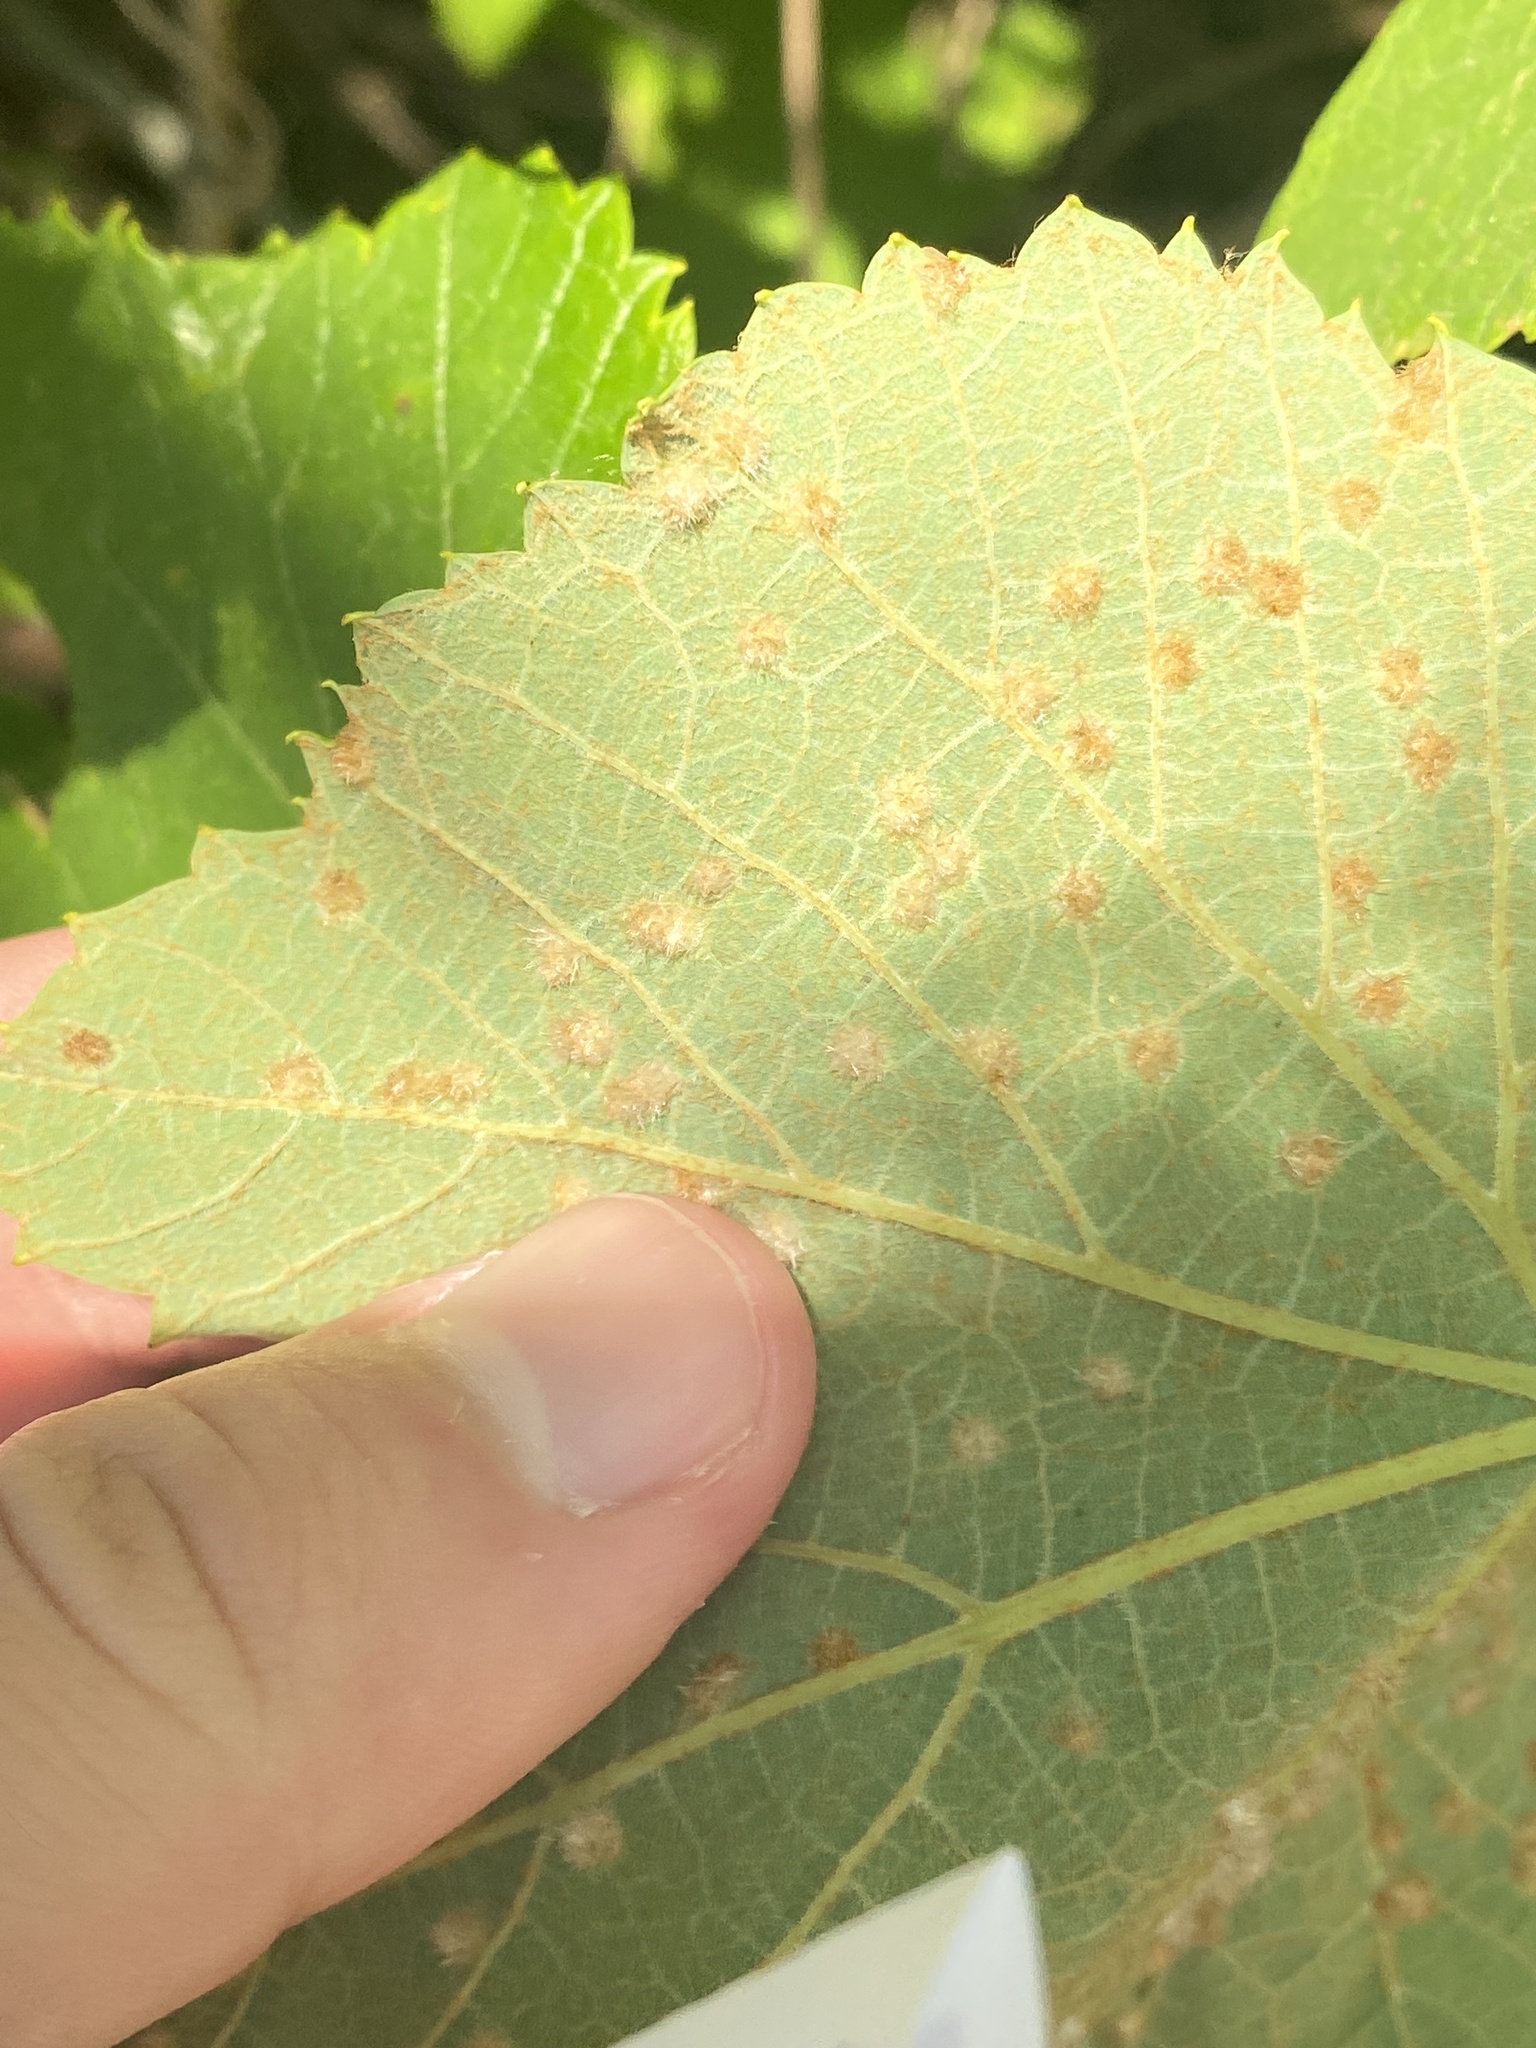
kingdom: Animalia
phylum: Arthropoda
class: Insecta
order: Hemiptera
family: Phylloxeridae
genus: Daktulosphaira
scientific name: Daktulosphaira vitifoliae
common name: Grape phylloxera
